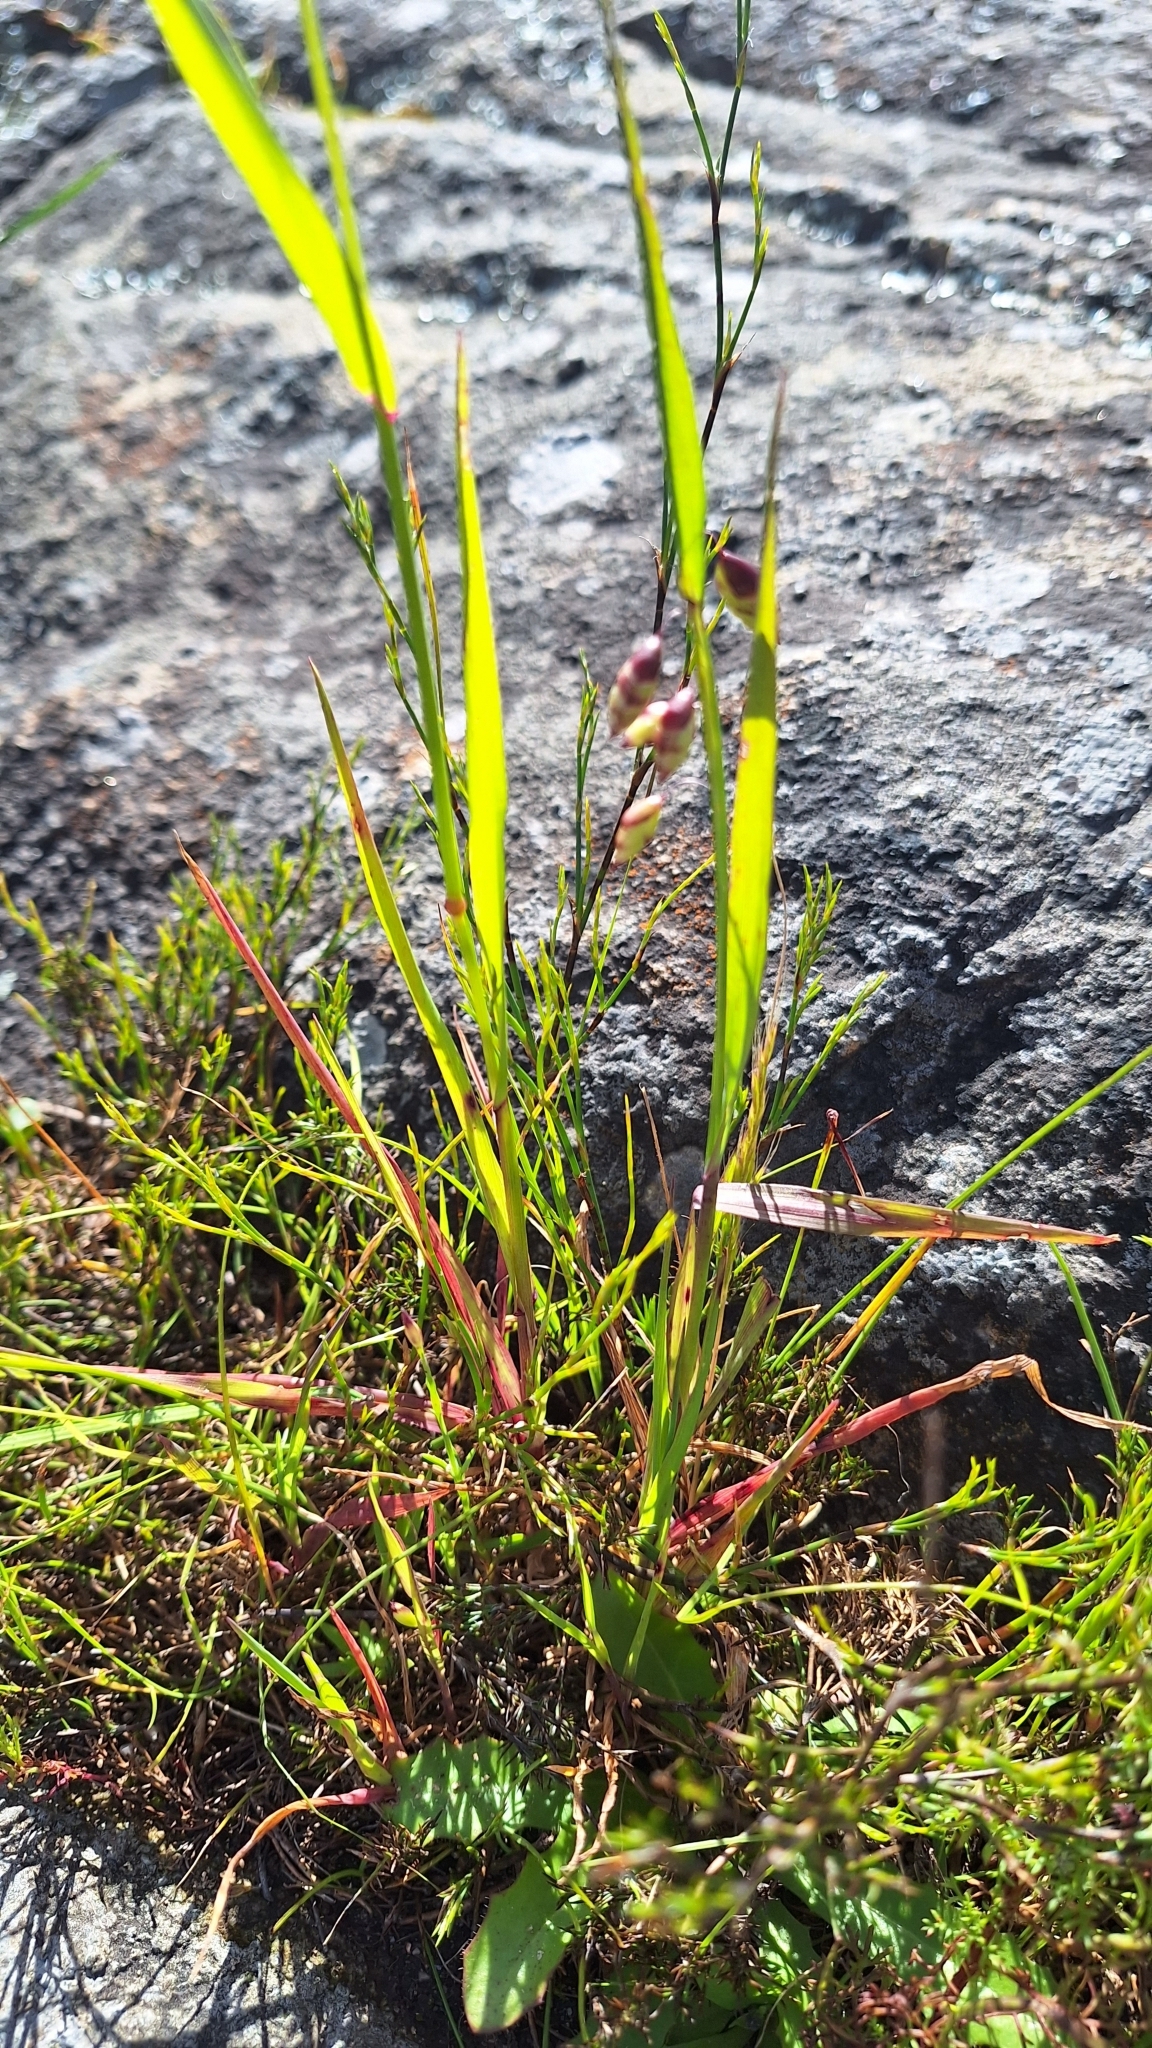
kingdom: Plantae
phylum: Tracheophyta
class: Liliopsida
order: Poales
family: Poaceae
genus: Briza
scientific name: Briza maxima
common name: Big quakinggrass
